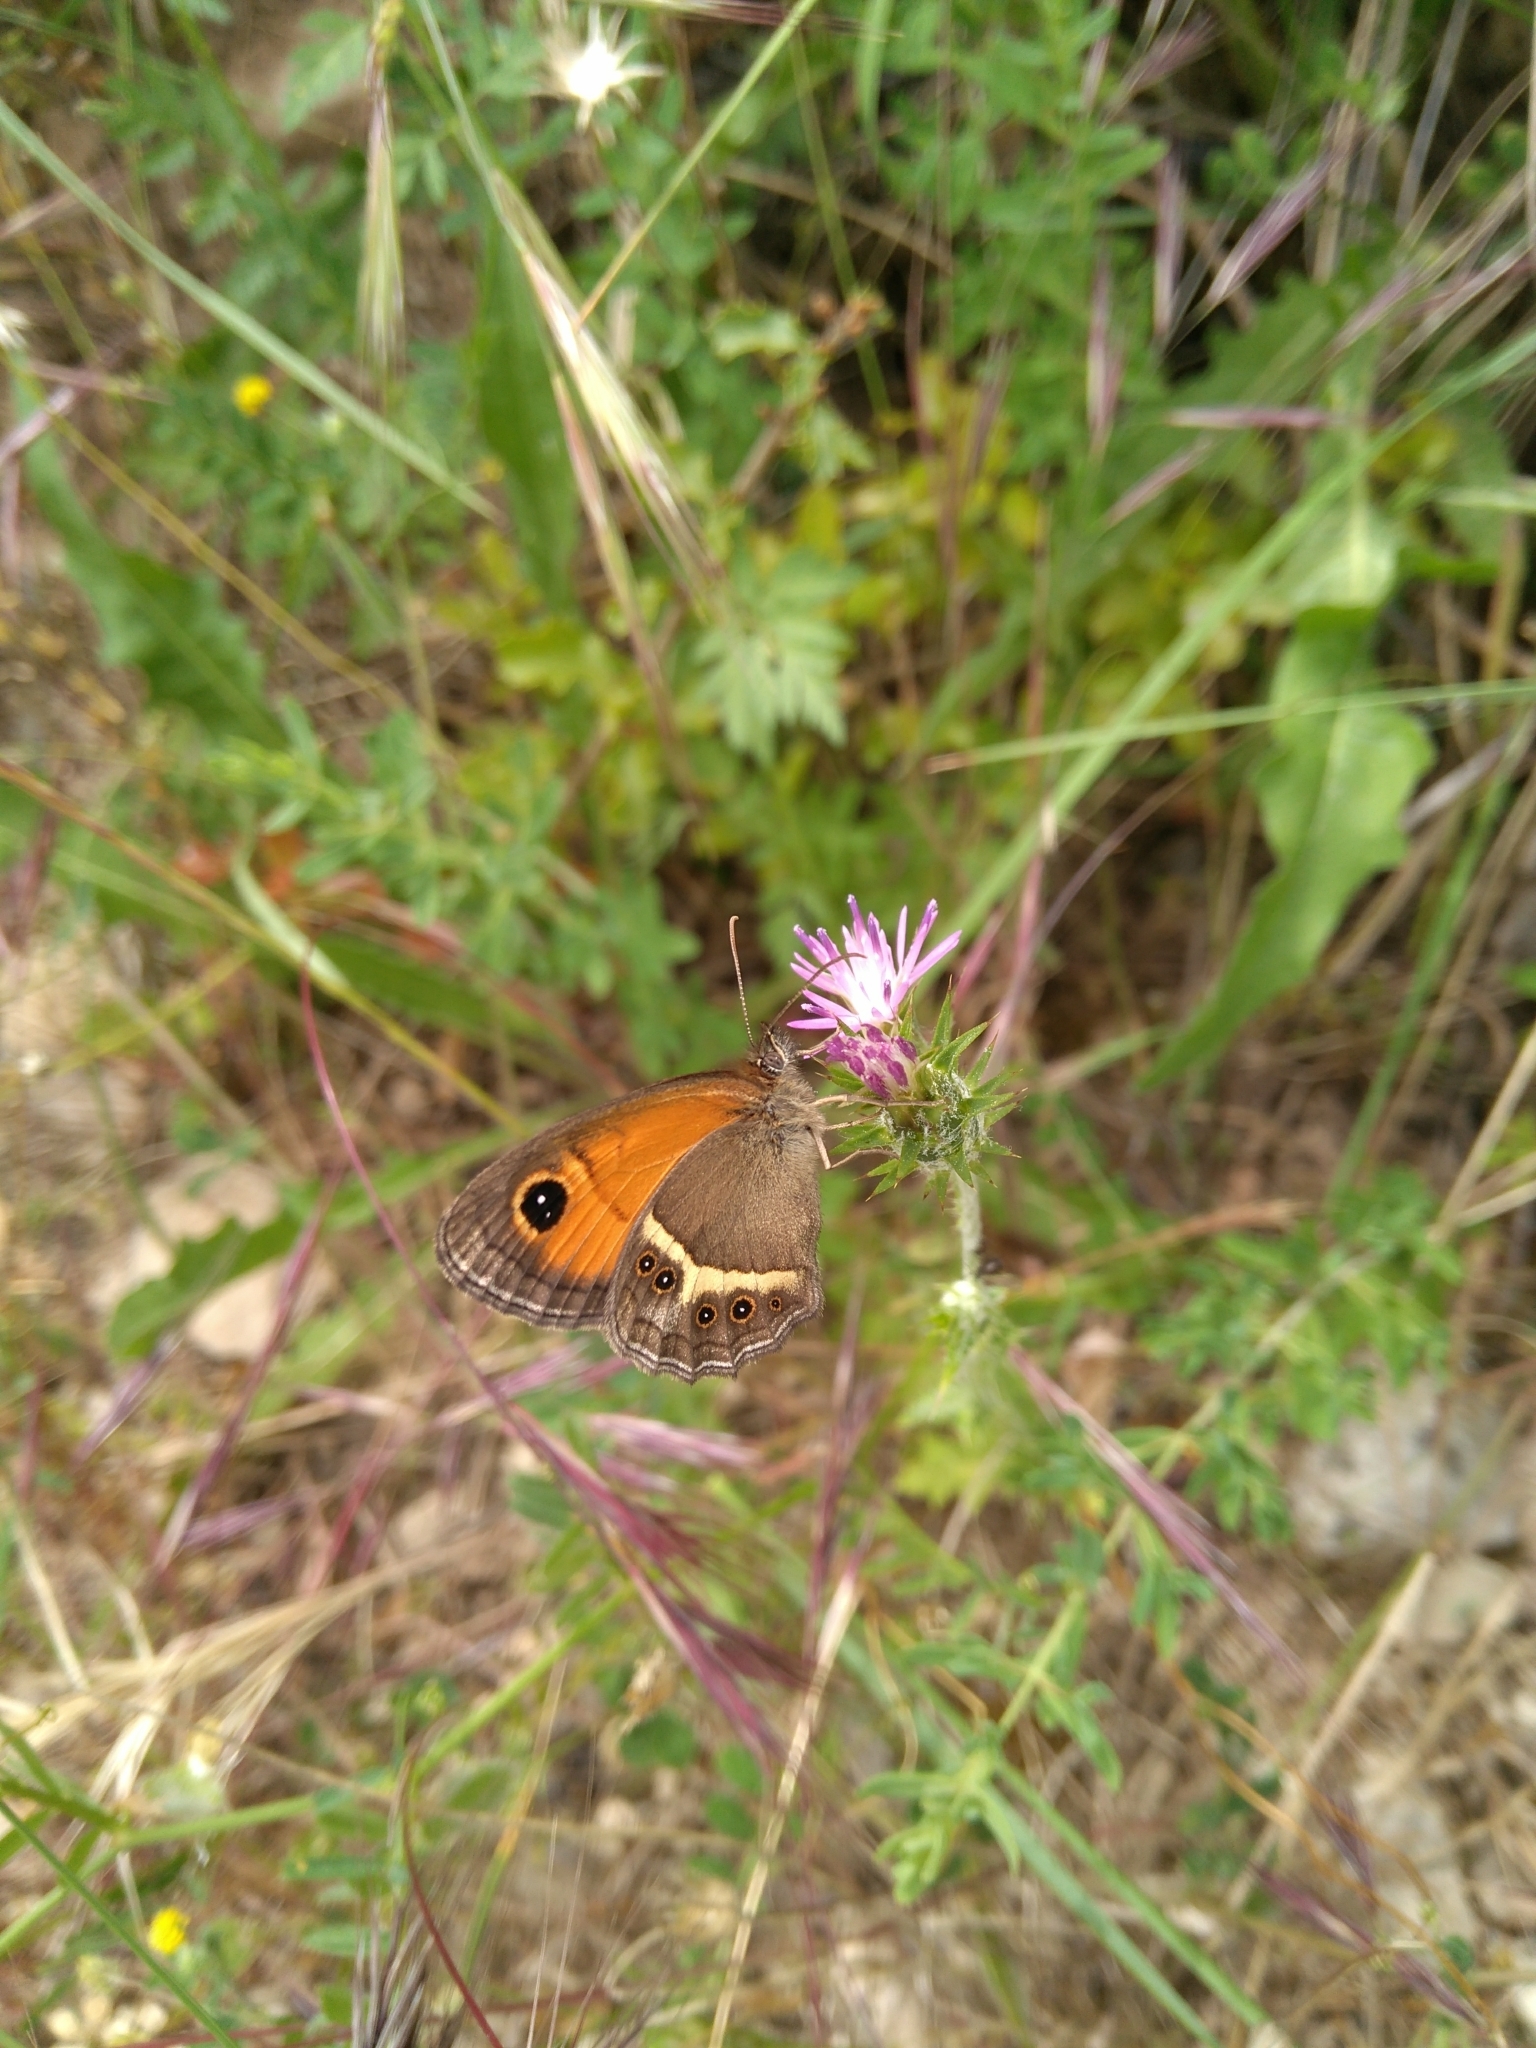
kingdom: Animalia
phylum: Arthropoda
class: Insecta
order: Lepidoptera
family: Nymphalidae
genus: Pyronia
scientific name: Pyronia bathseba
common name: Spanish gatekeeper
